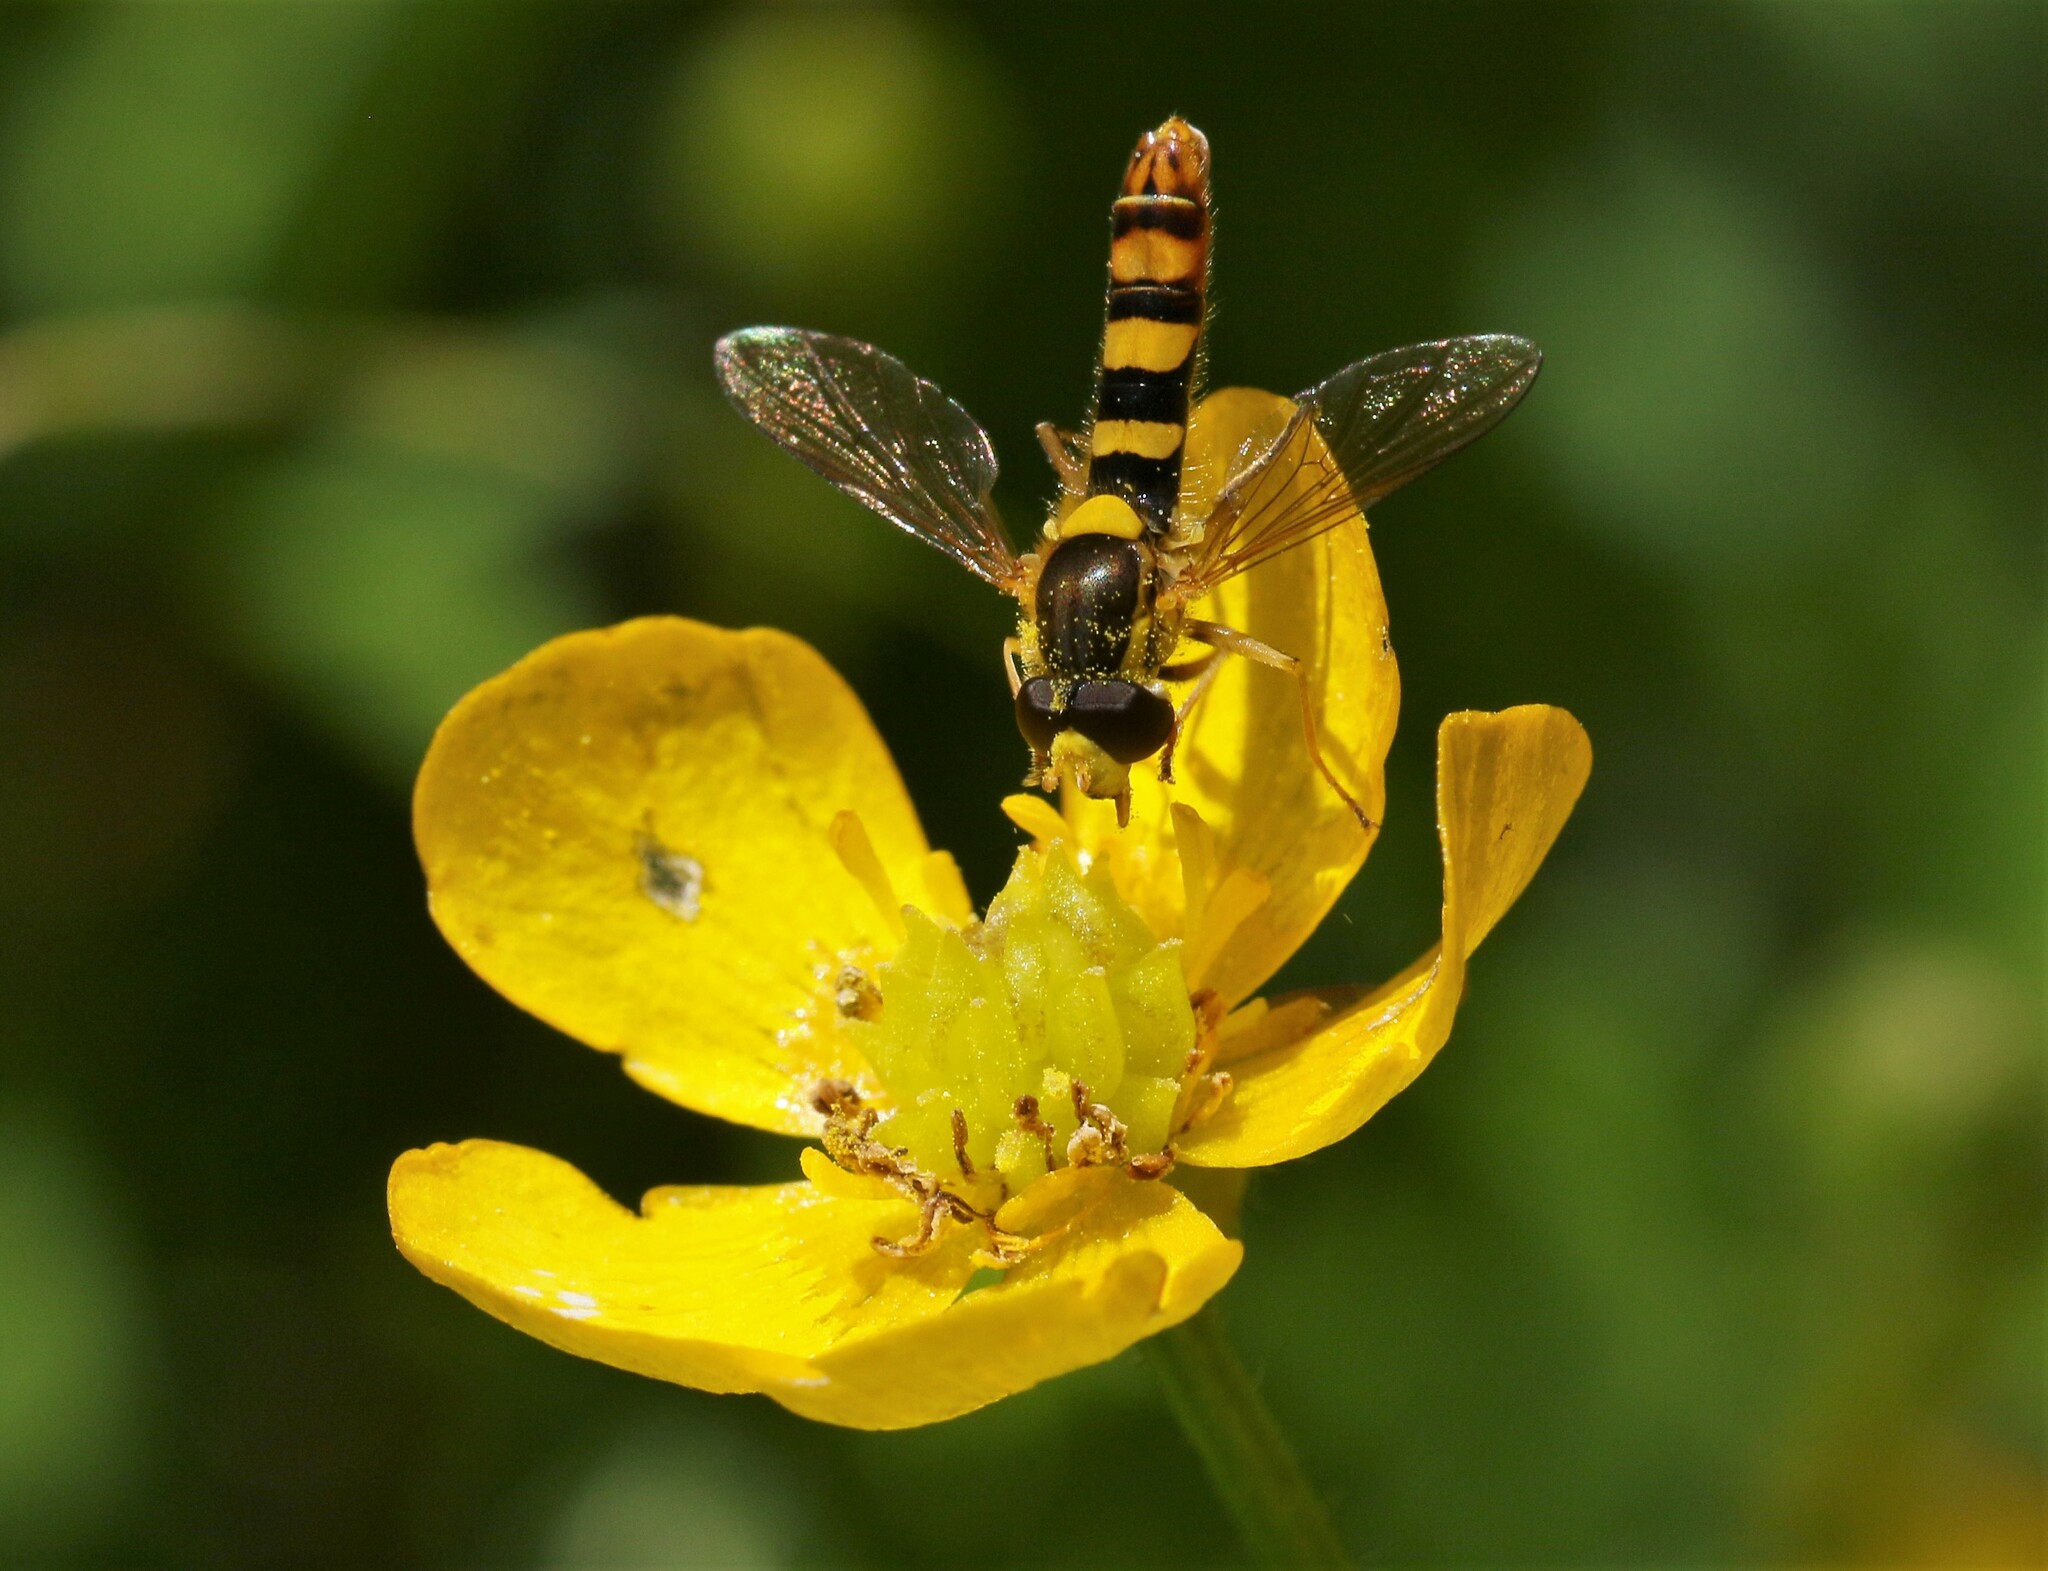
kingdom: Animalia
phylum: Arthropoda
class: Insecta
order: Diptera
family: Syrphidae
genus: Sphaerophoria
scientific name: Sphaerophoria philantha
